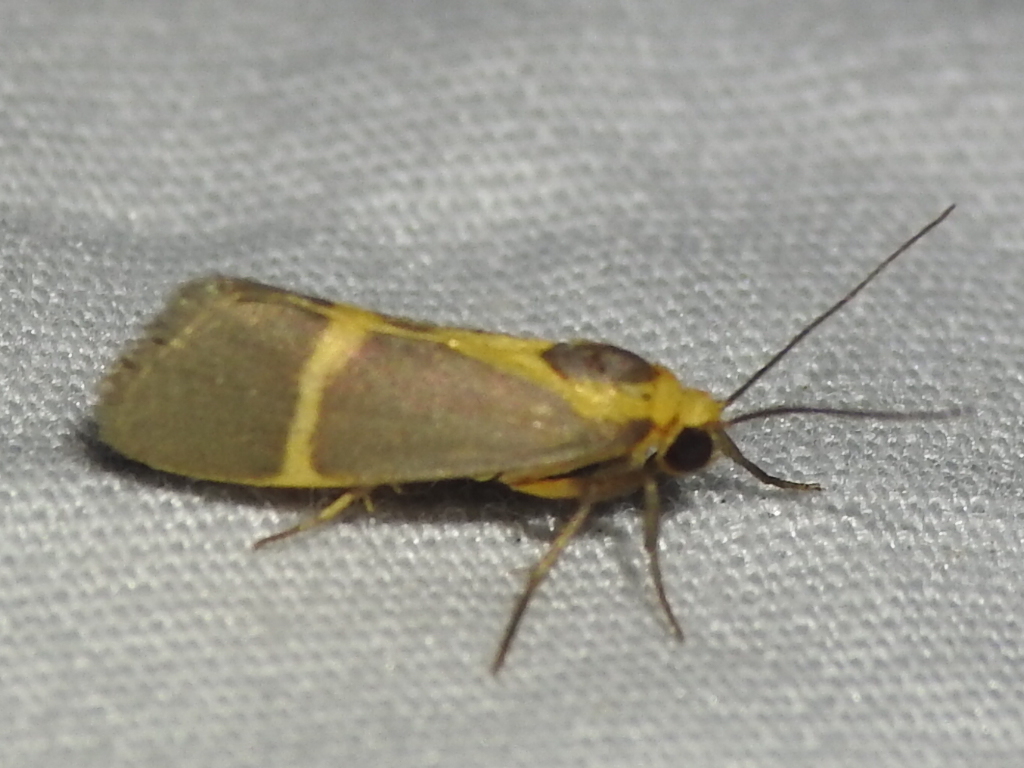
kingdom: Animalia
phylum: Arthropoda
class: Insecta
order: Lepidoptera
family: Erebidae
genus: Cisthene
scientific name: Cisthene tenuifascia
